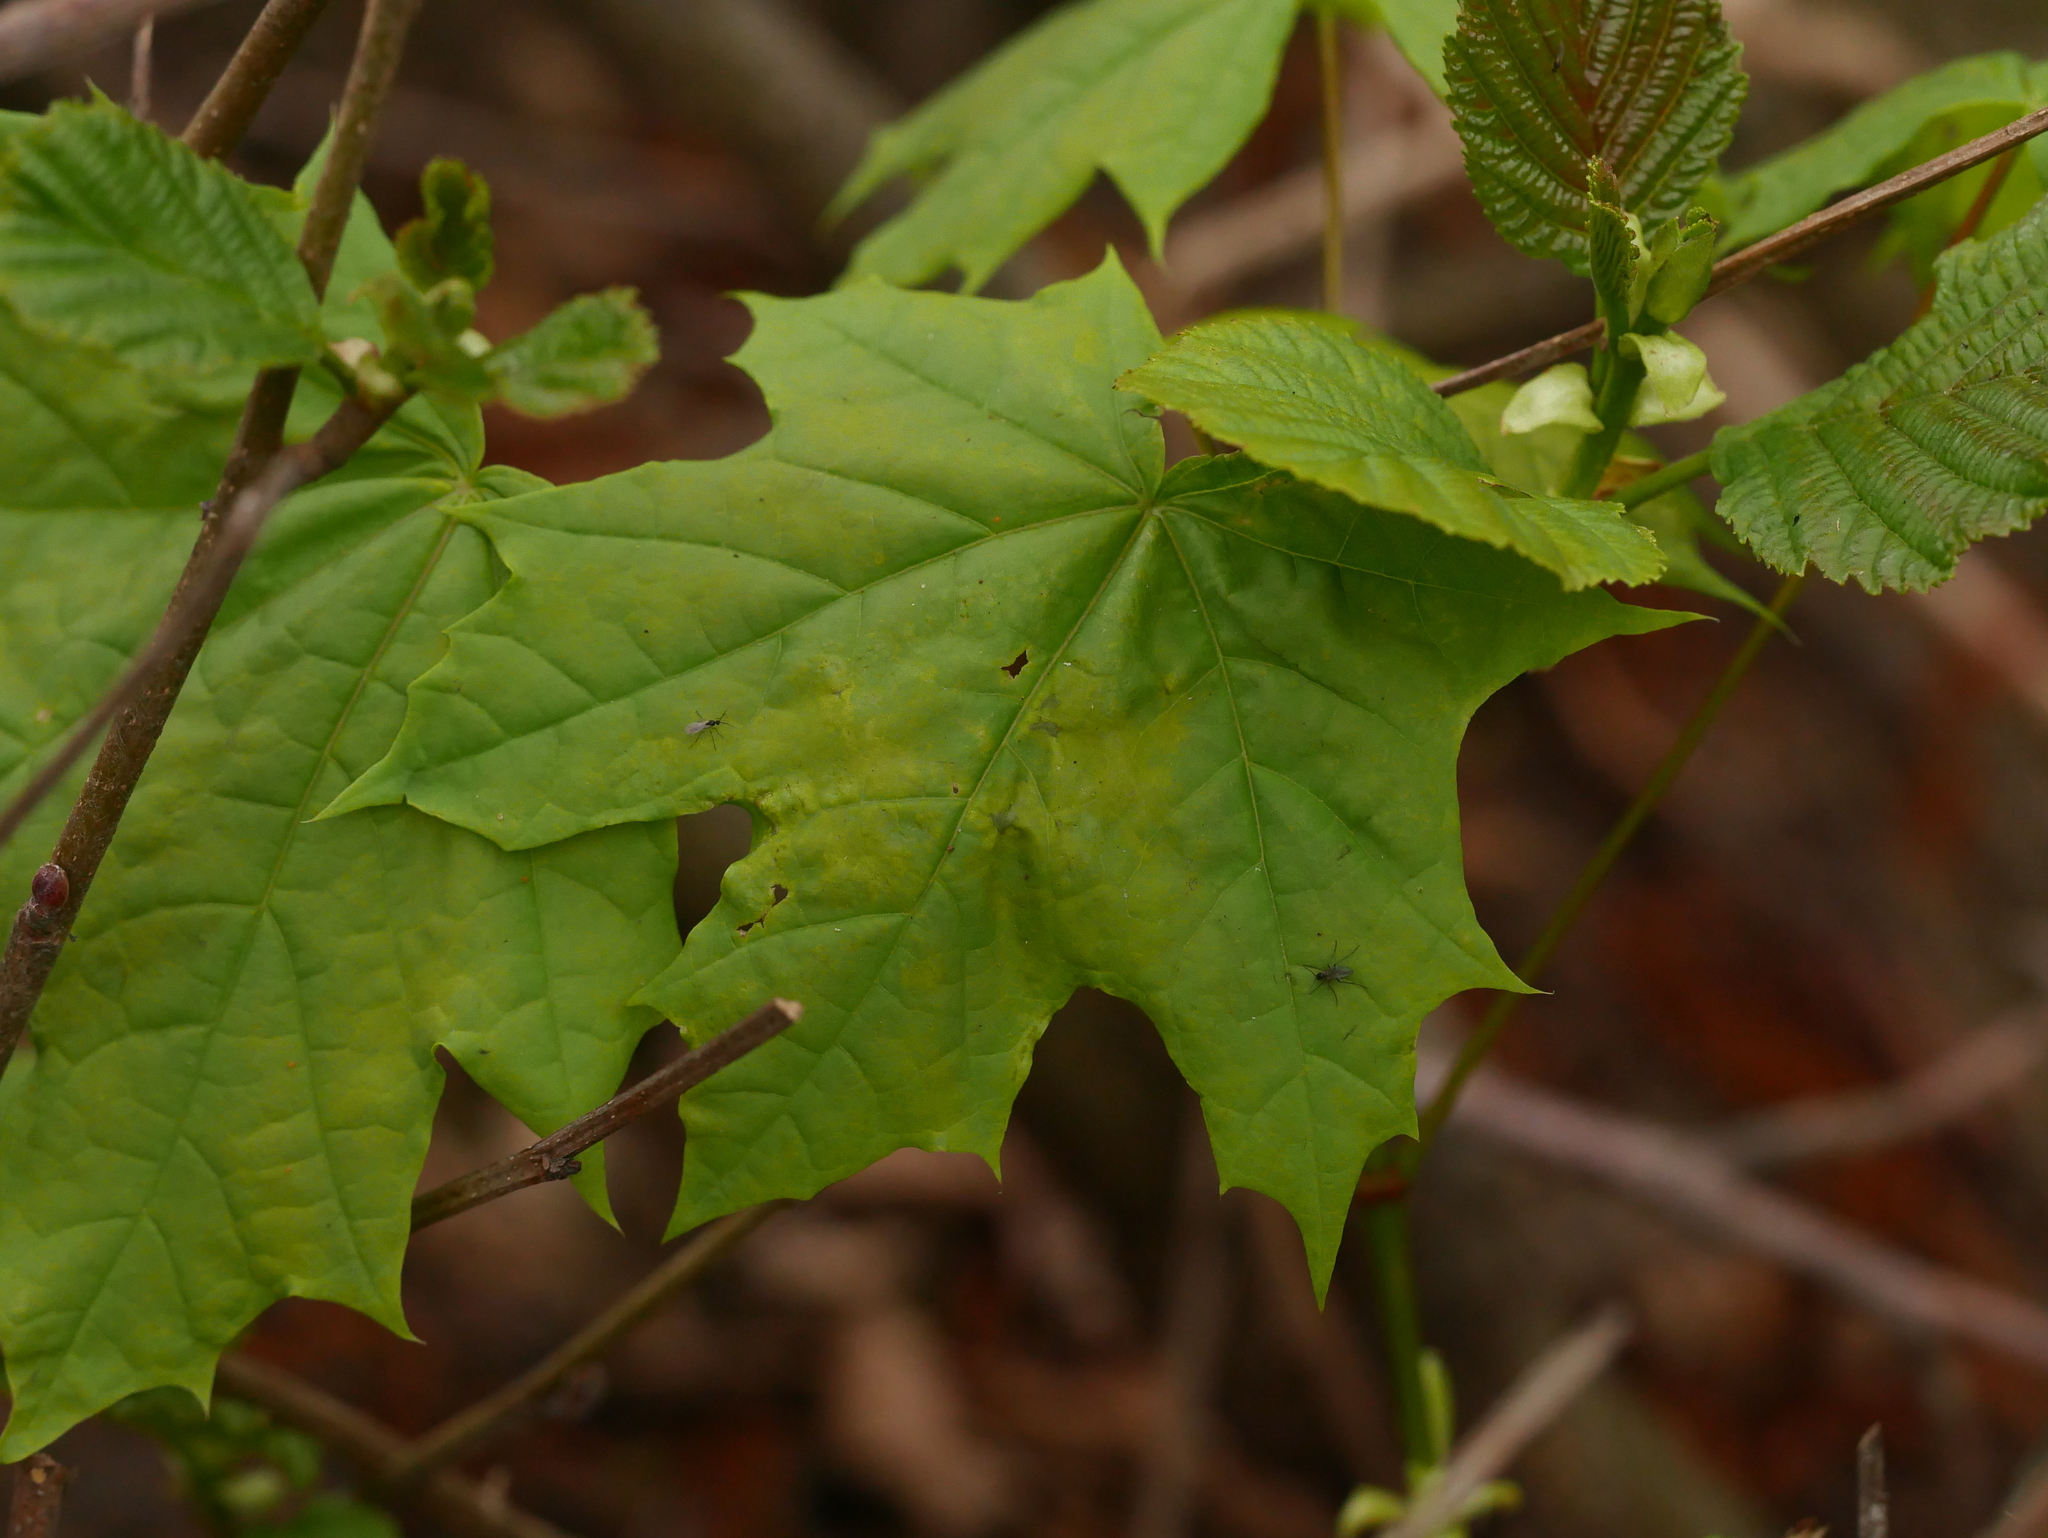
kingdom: Plantae
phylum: Tracheophyta
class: Magnoliopsida
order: Sapindales
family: Sapindaceae
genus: Acer
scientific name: Acer platanoides
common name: Norway maple
